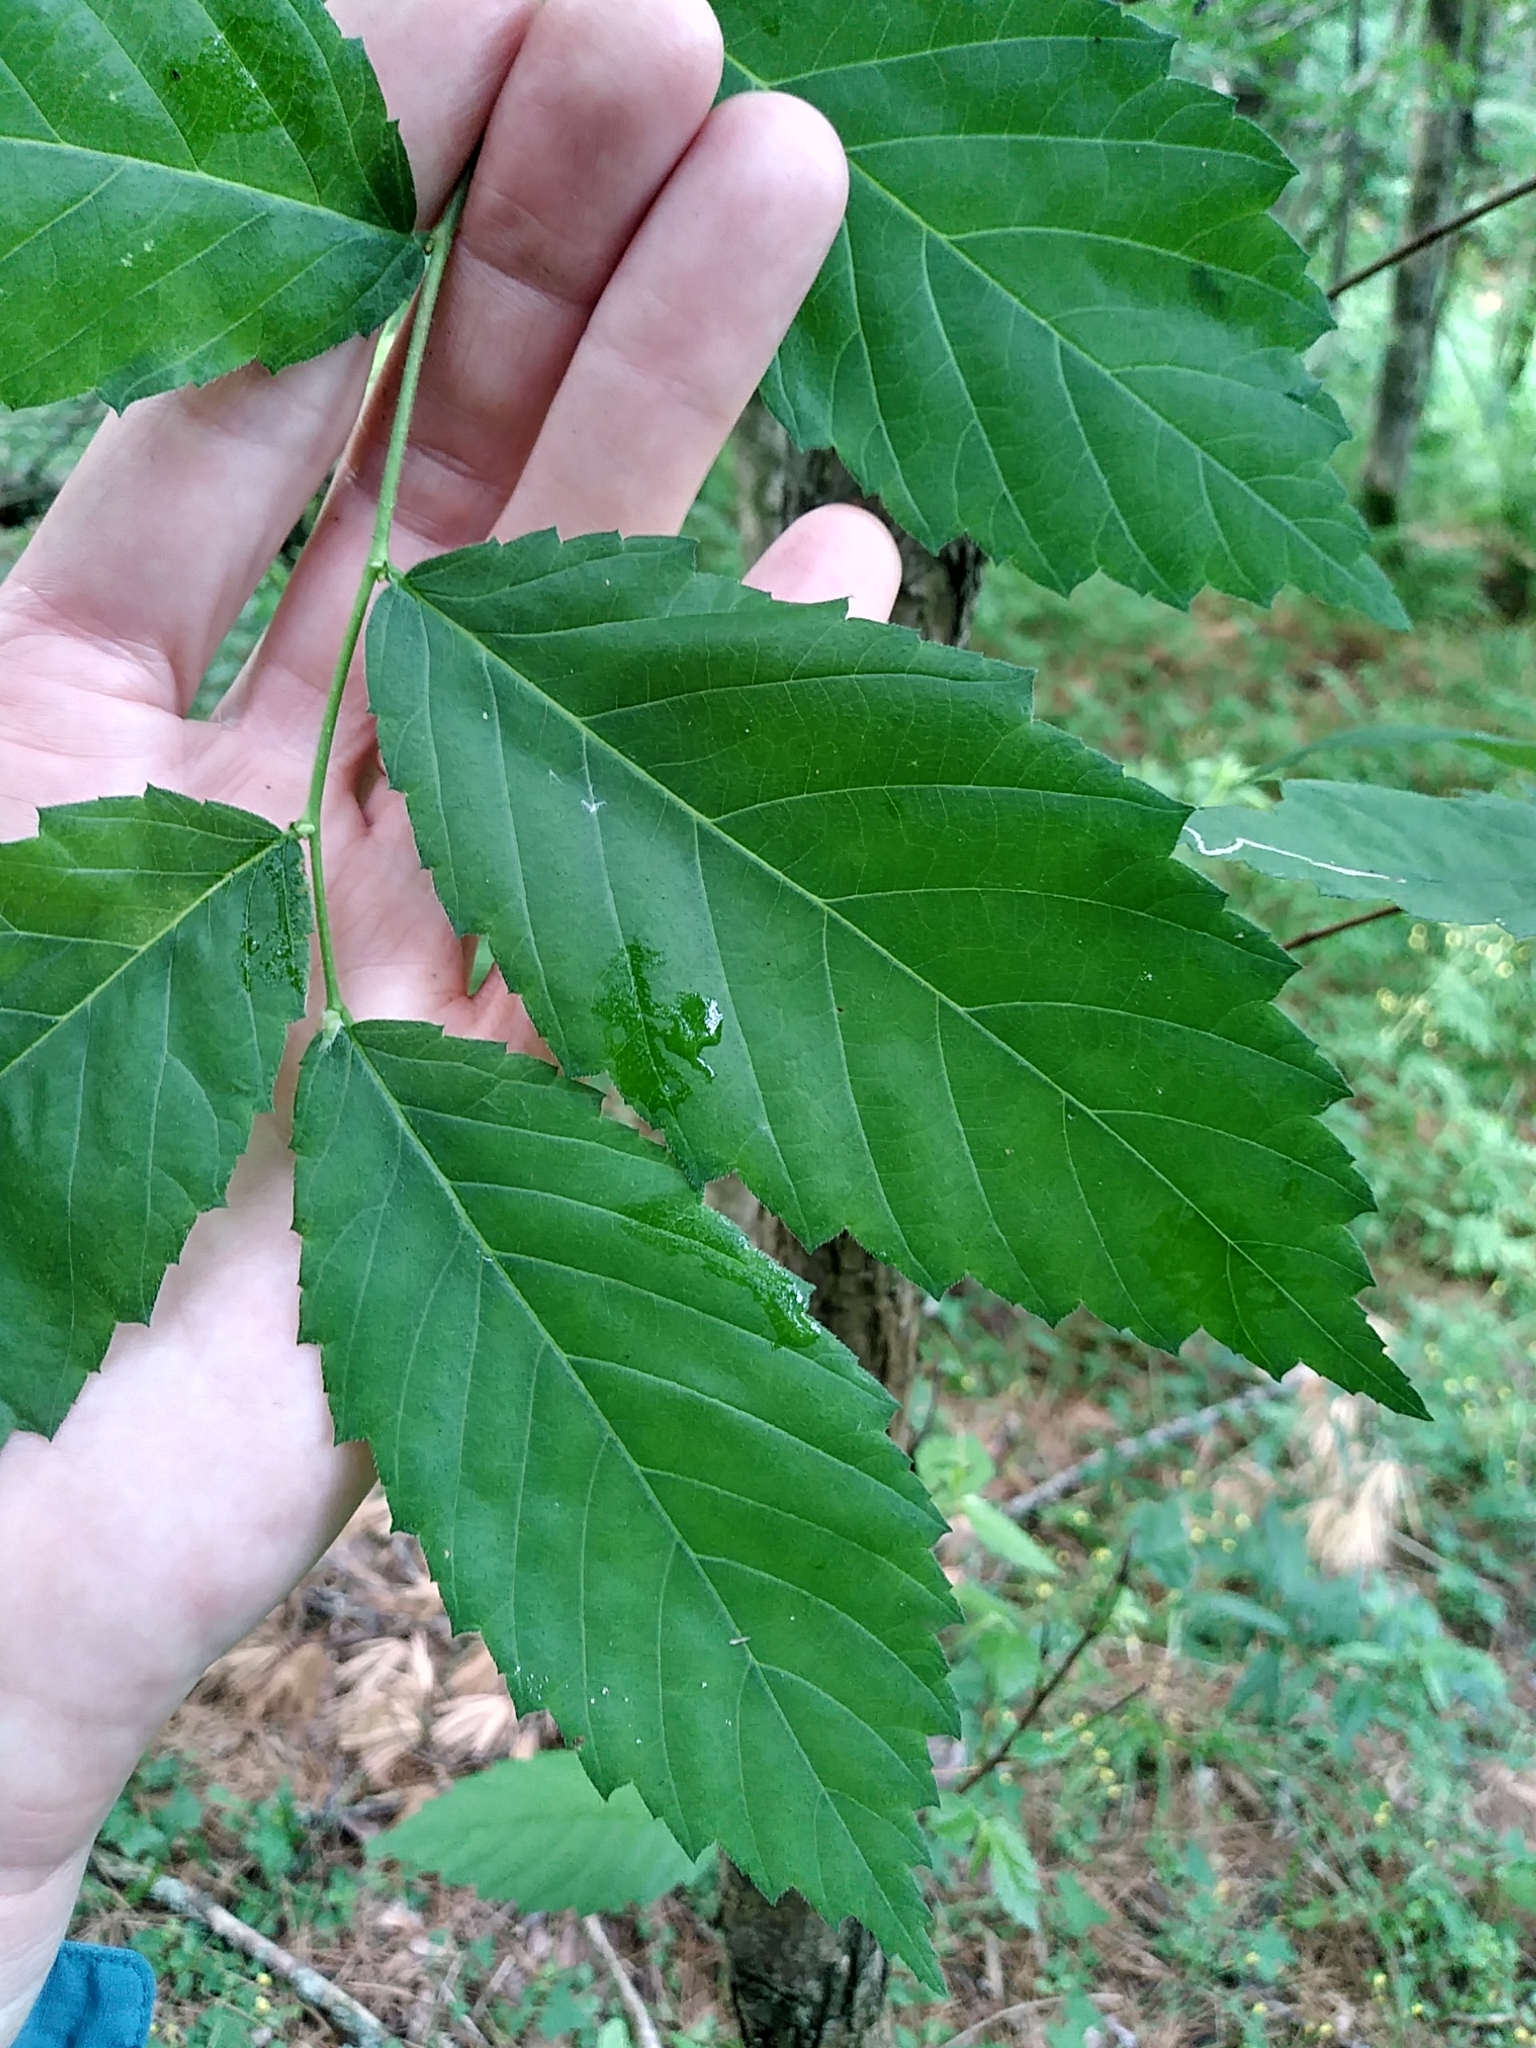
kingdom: Plantae
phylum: Tracheophyta
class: Magnoliopsida
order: Rosales
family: Ulmaceae
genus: Ulmus
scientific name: Ulmus americana
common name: American elm
